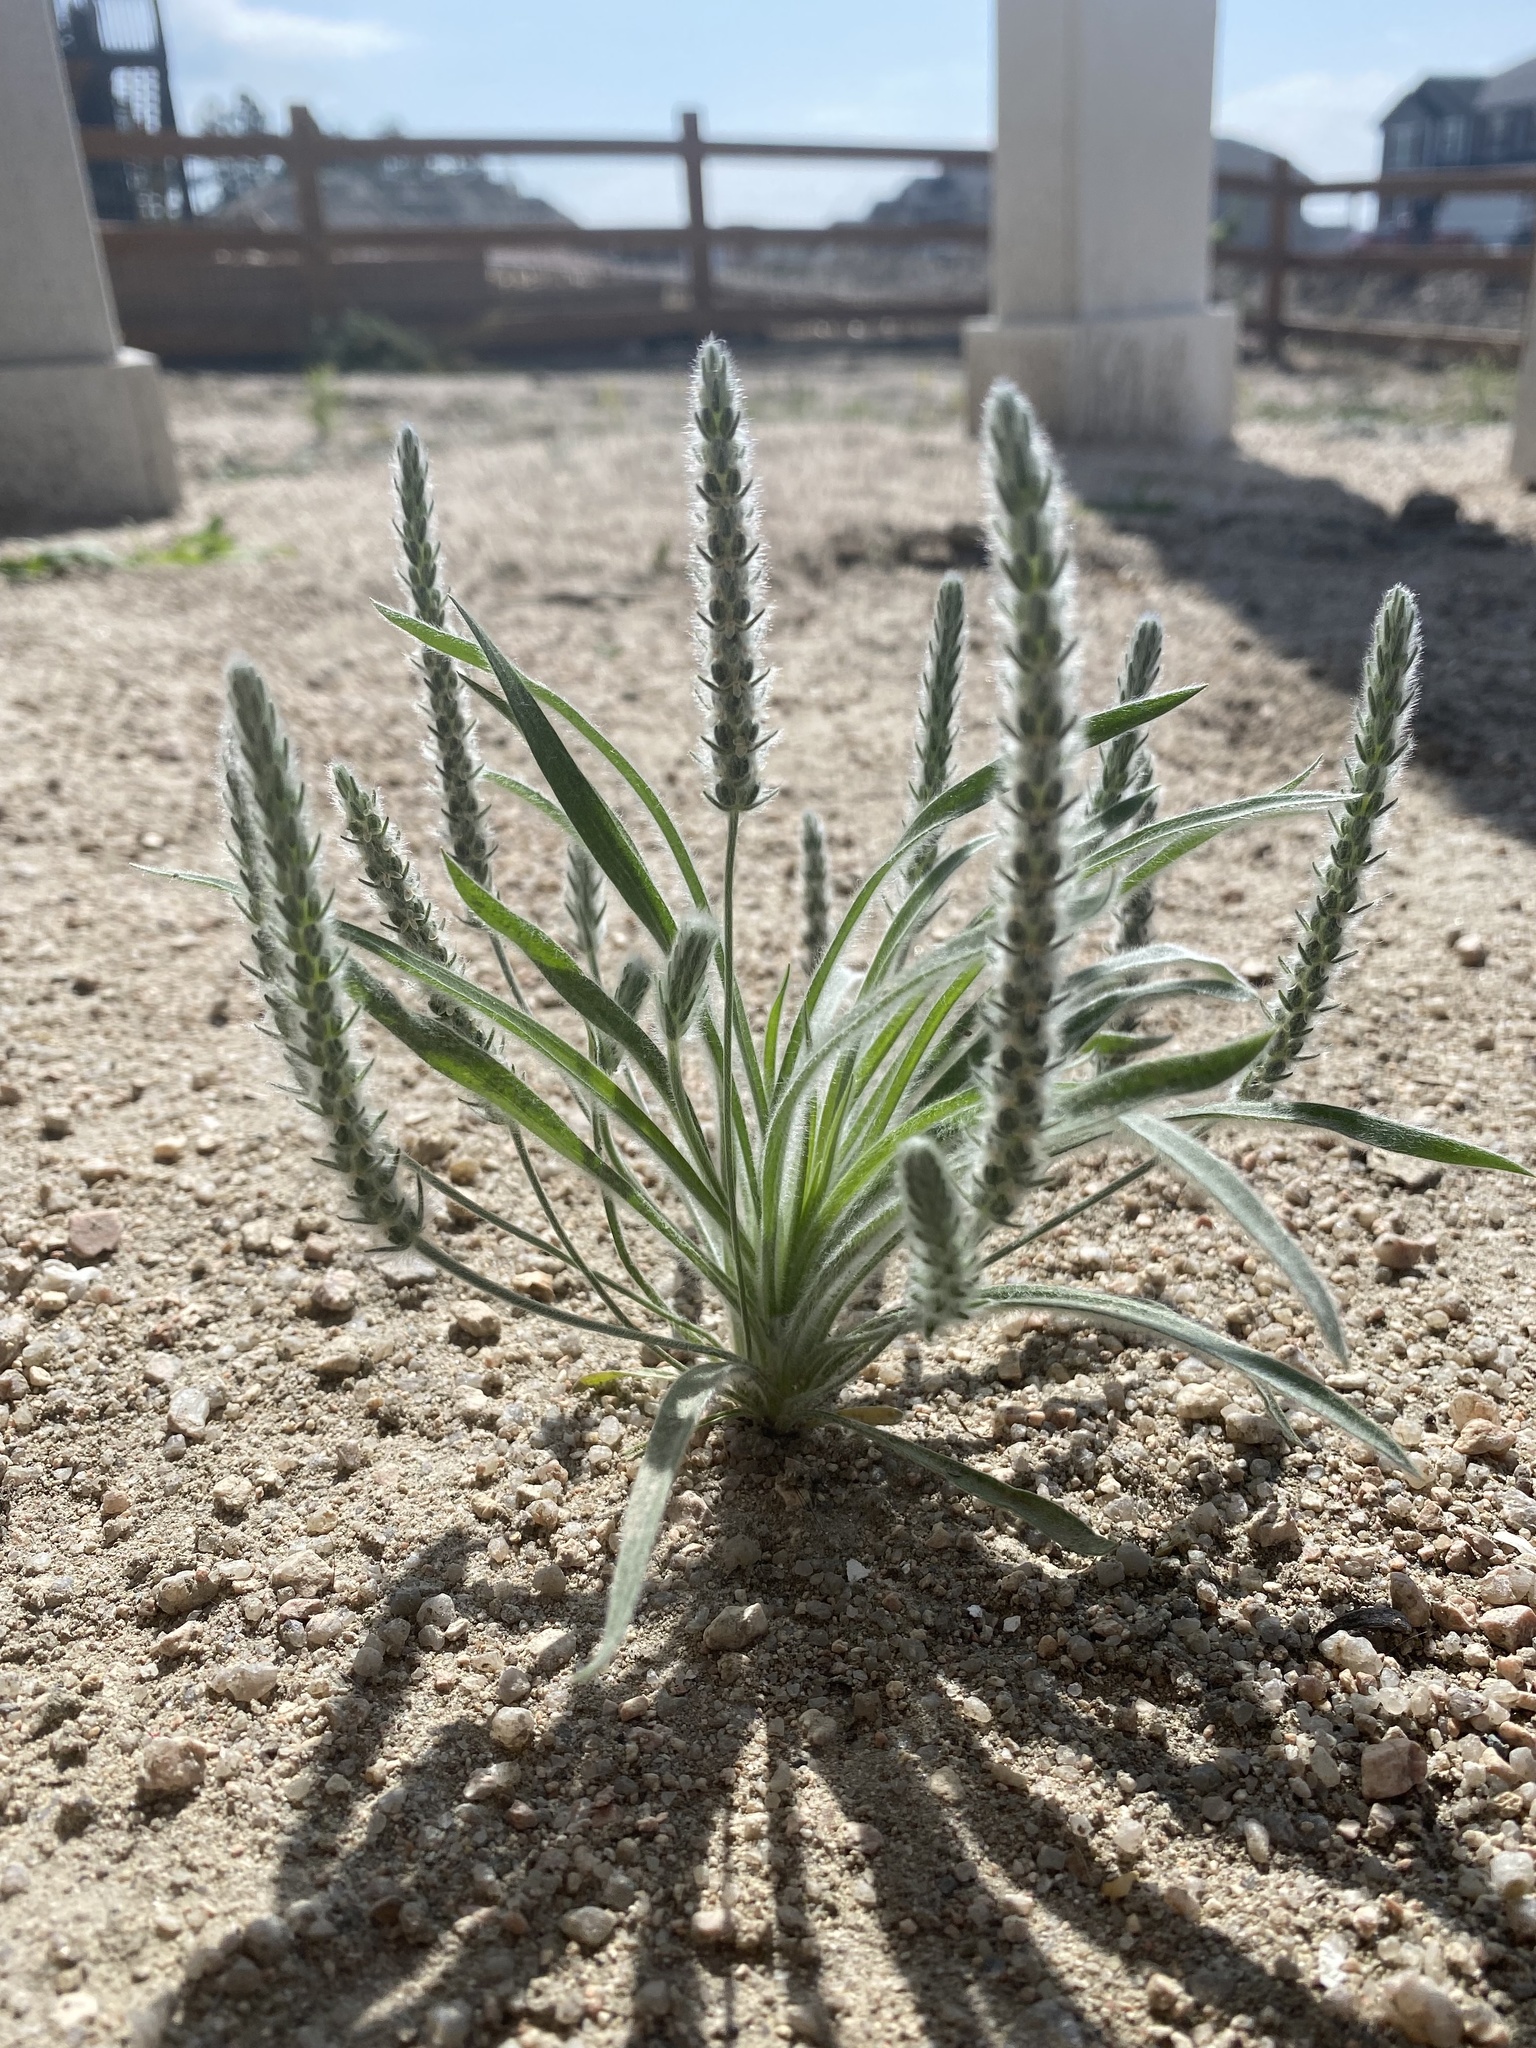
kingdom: Plantae
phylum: Tracheophyta
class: Magnoliopsida
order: Lamiales
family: Plantaginaceae
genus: Plantago
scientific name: Plantago patagonica
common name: Patagonia indian-wheat
